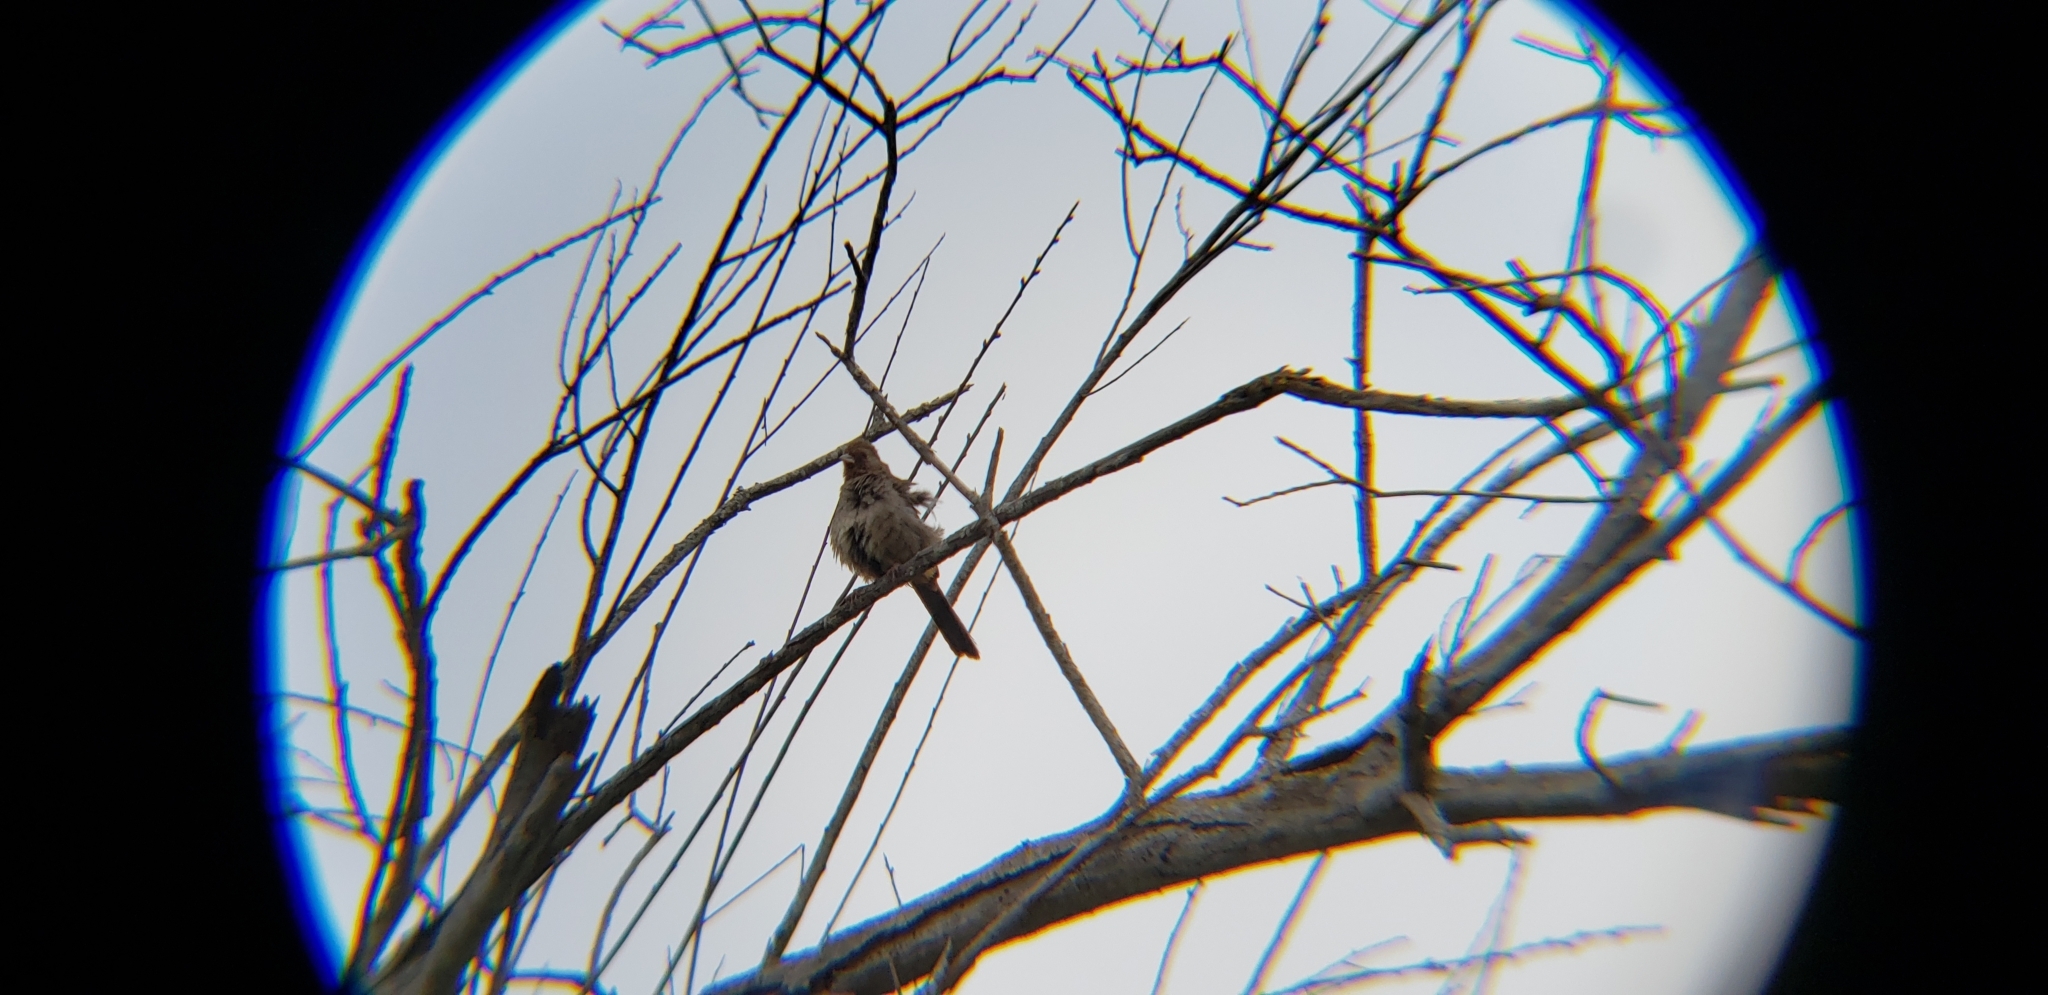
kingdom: Animalia
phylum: Chordata
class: Aves
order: Passeriformes
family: Passerellidae
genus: Melozone
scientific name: Melozone crissalis
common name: California towhee
